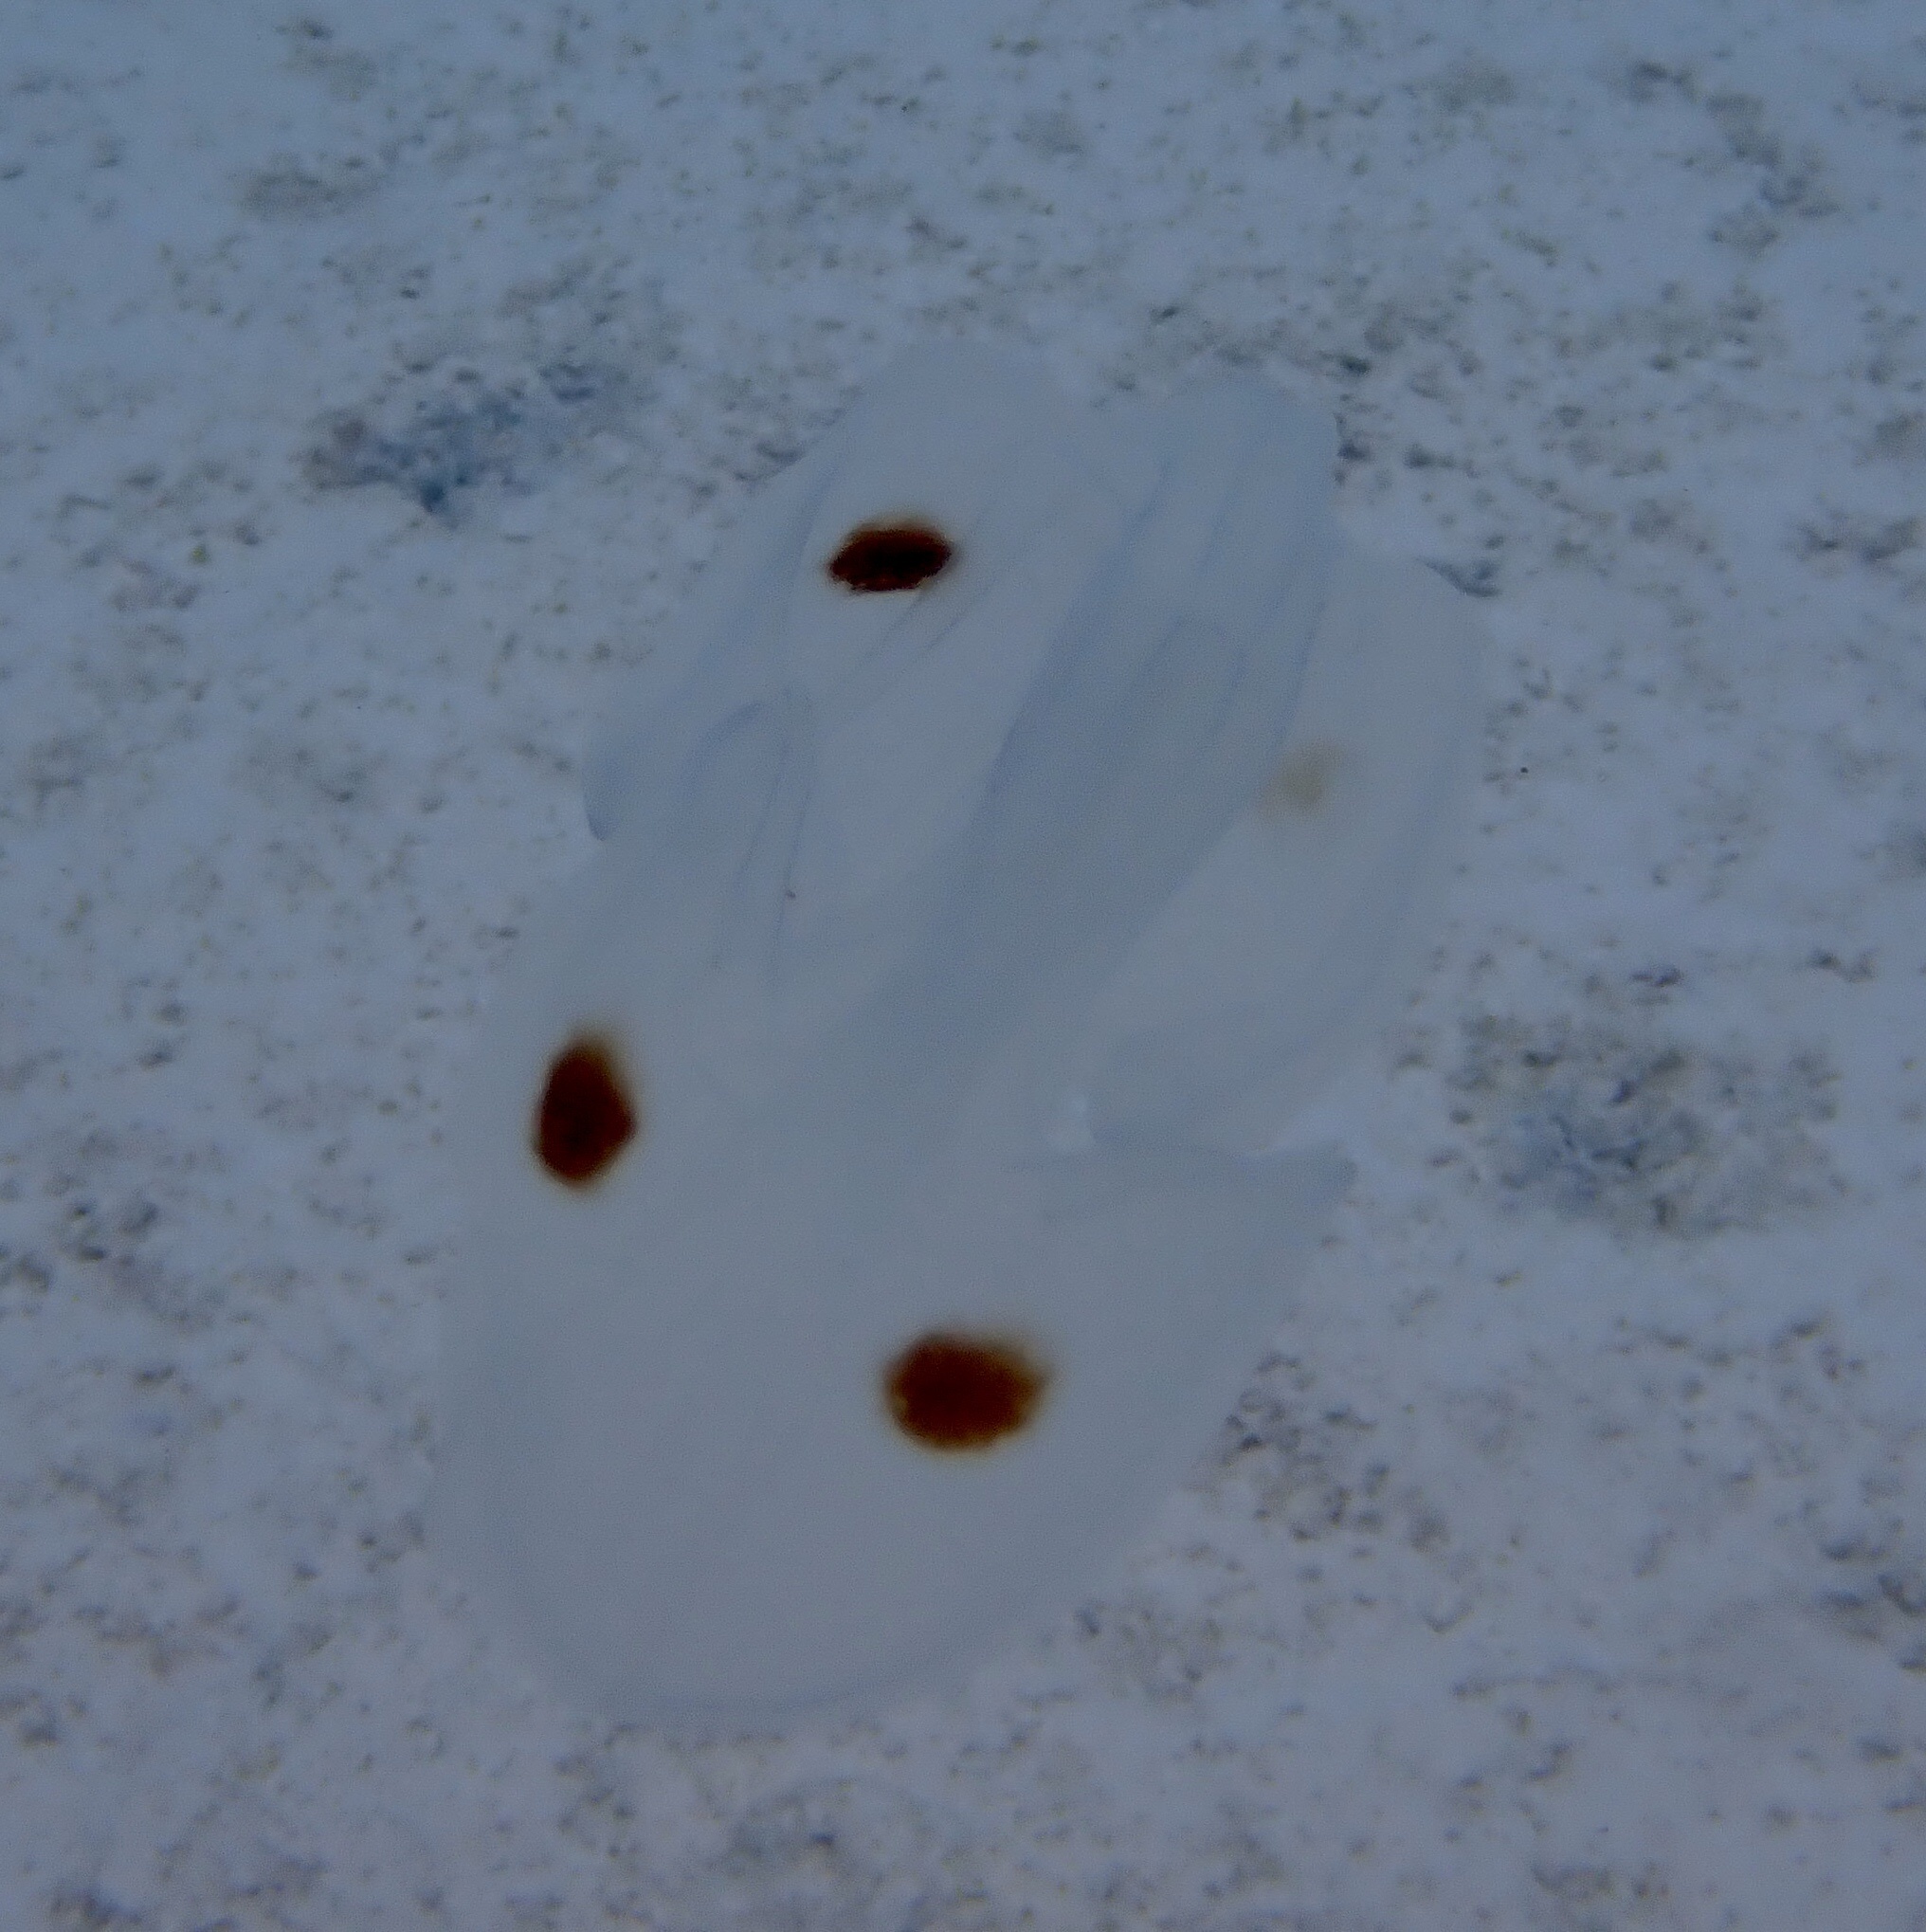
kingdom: Animalia
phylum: Ctenophora
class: Tentaculata
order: Lobata
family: Ocyropsidae
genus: Ocyropsis
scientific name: Ocyropsis maculata
